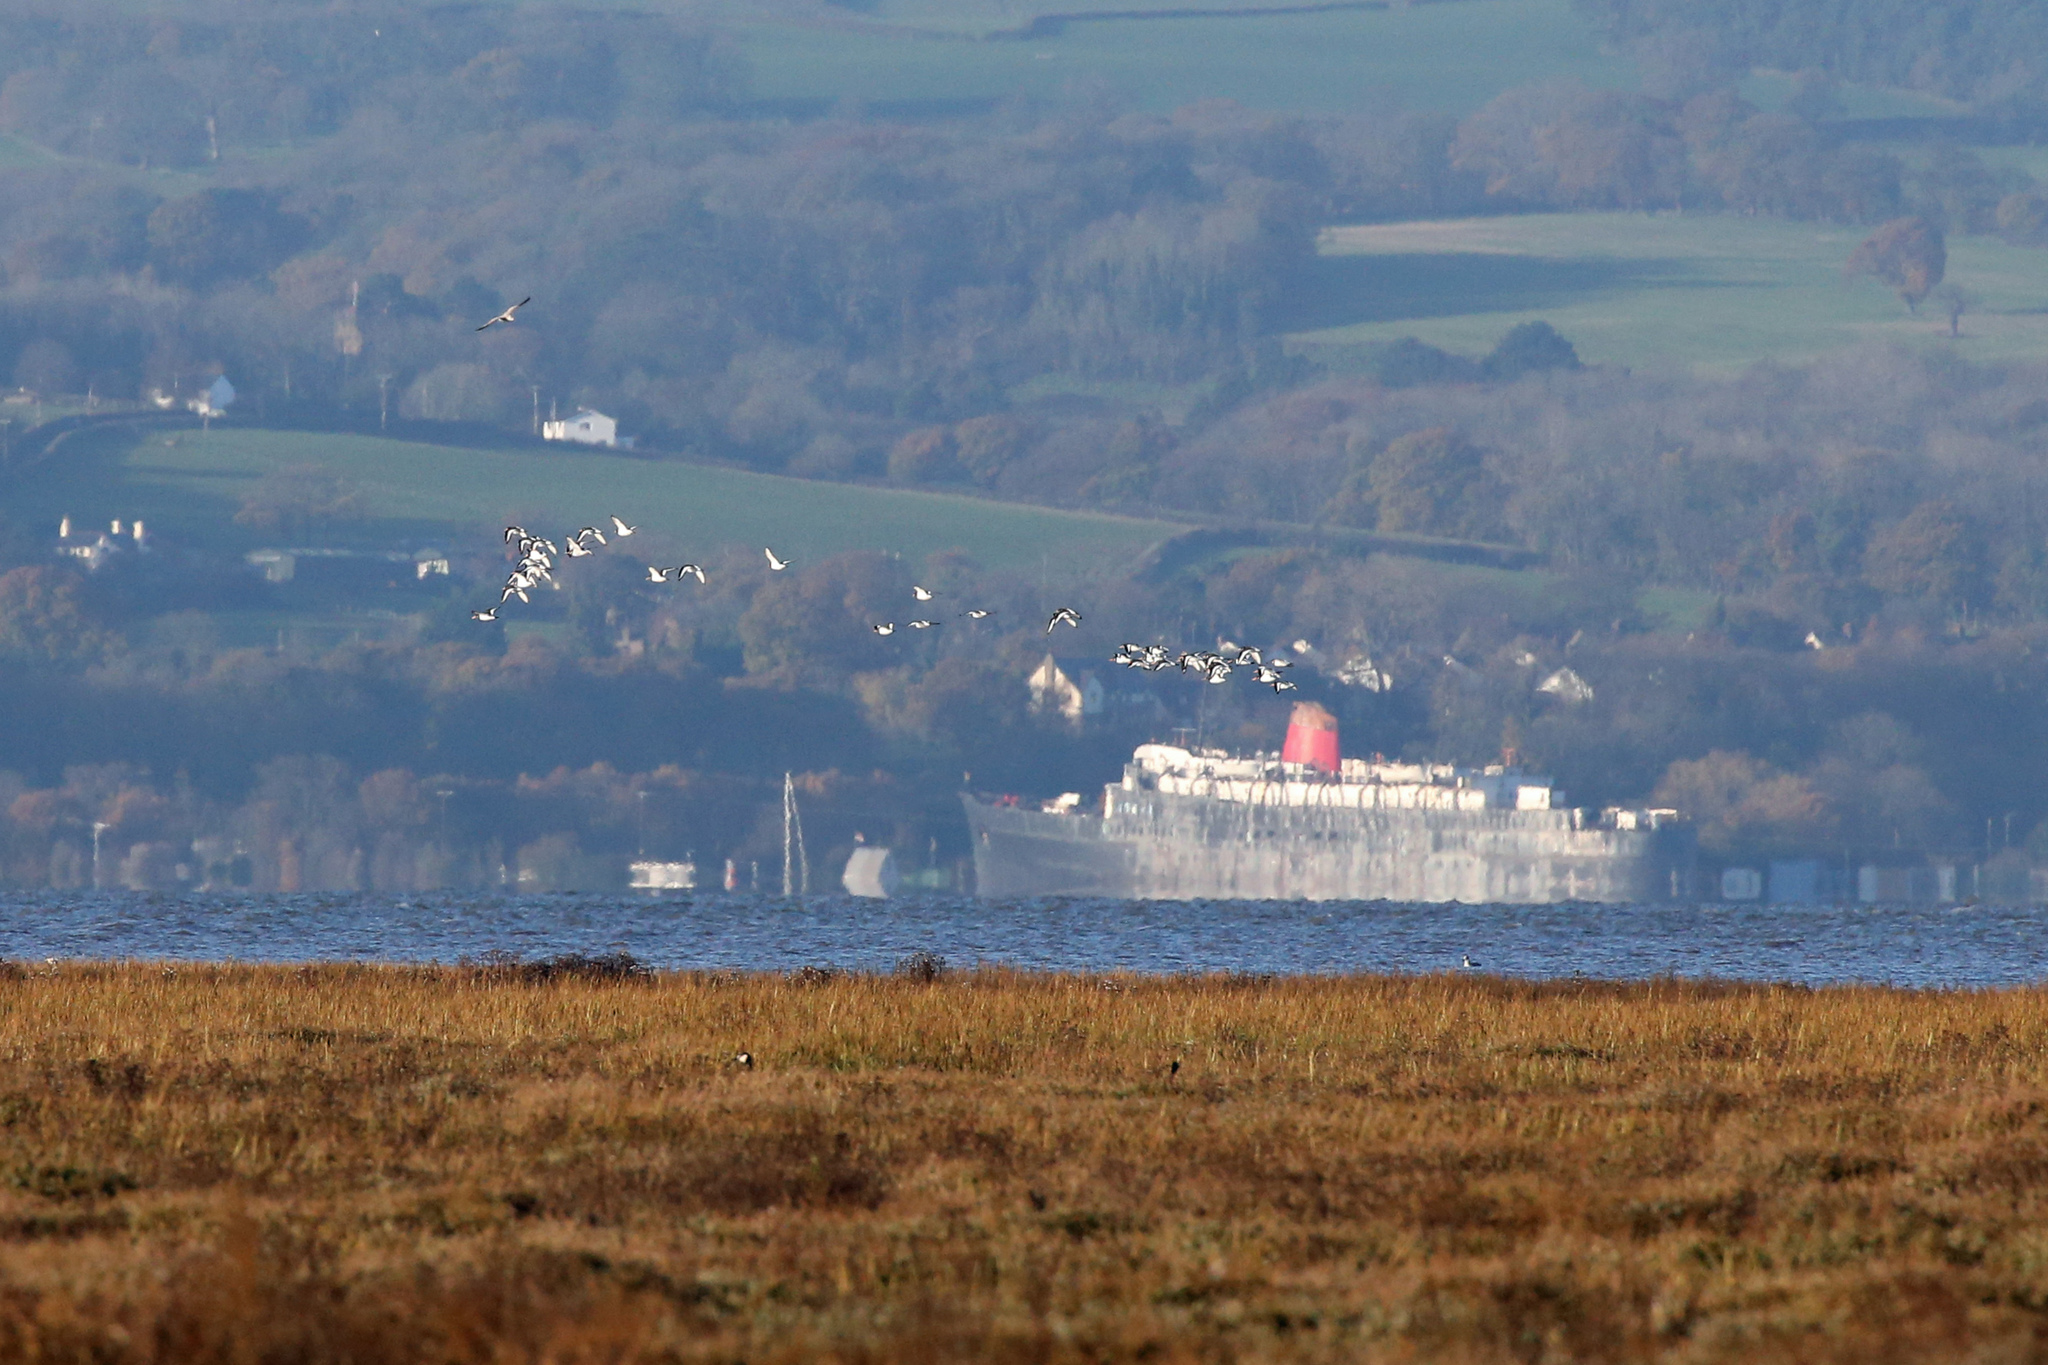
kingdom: Animalia
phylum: Chordata
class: Aves
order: Charadriiformes
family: Haematopodidae
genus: Haematopus
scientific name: Haematopus ostralegus
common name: Eurasian oystercatcher
